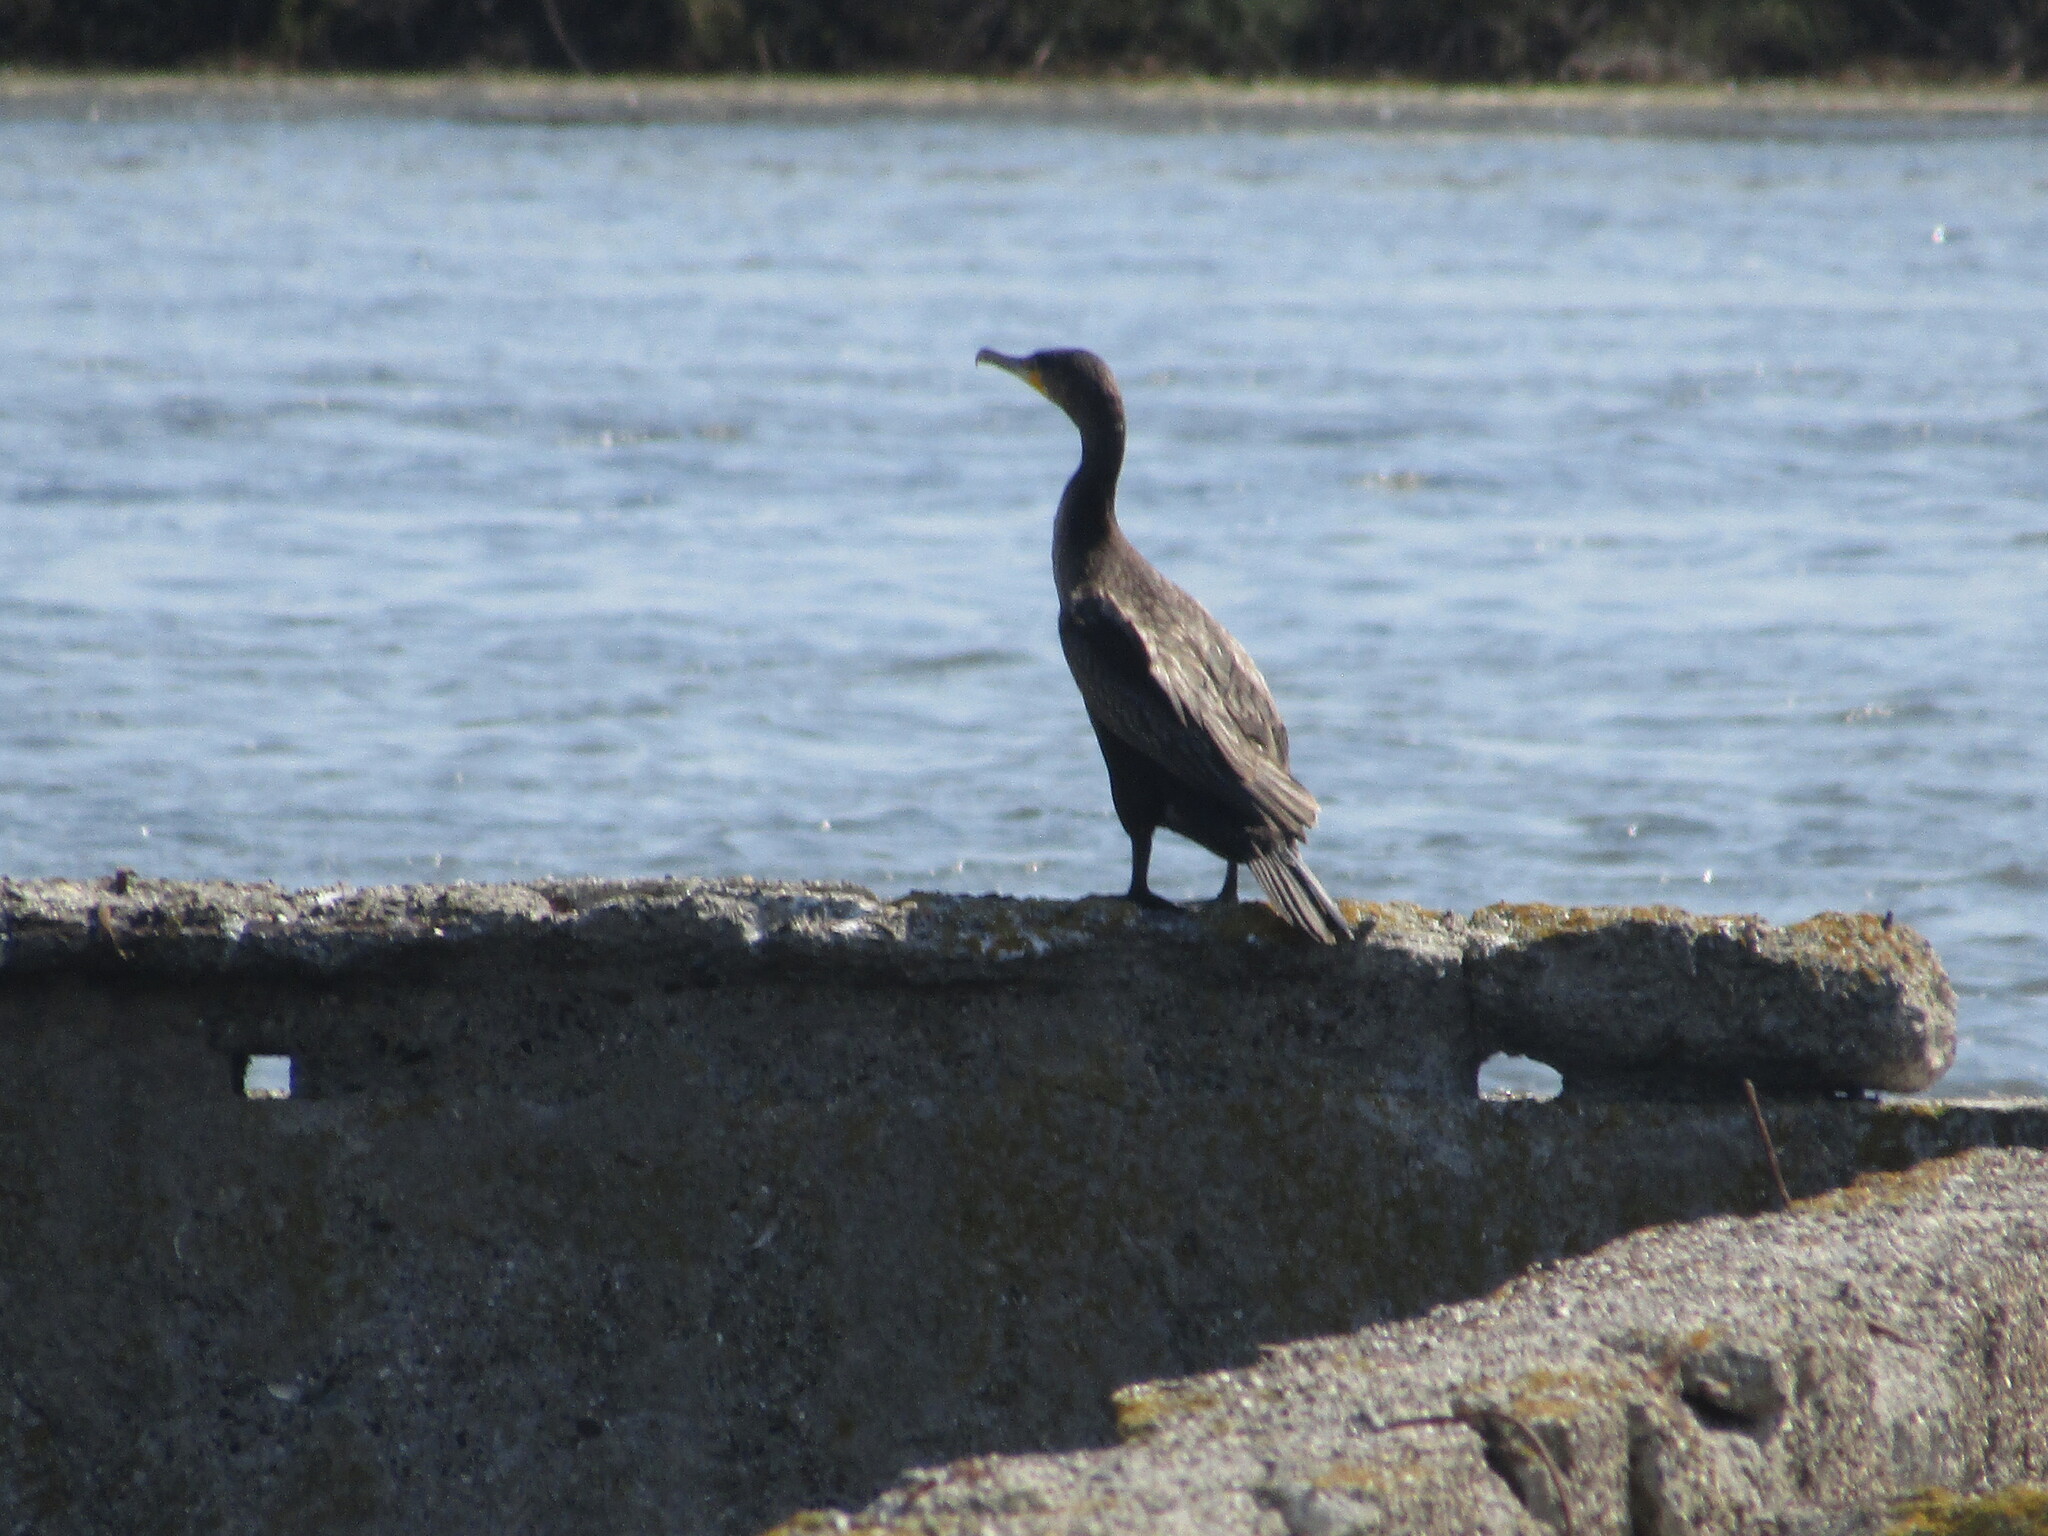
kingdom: Animalia
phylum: Chordata
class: Aves
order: Suliformes
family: Phalacrocoracidae
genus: Phalacrocorax
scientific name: Phalacrocorax carbo
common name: Great cormorant
